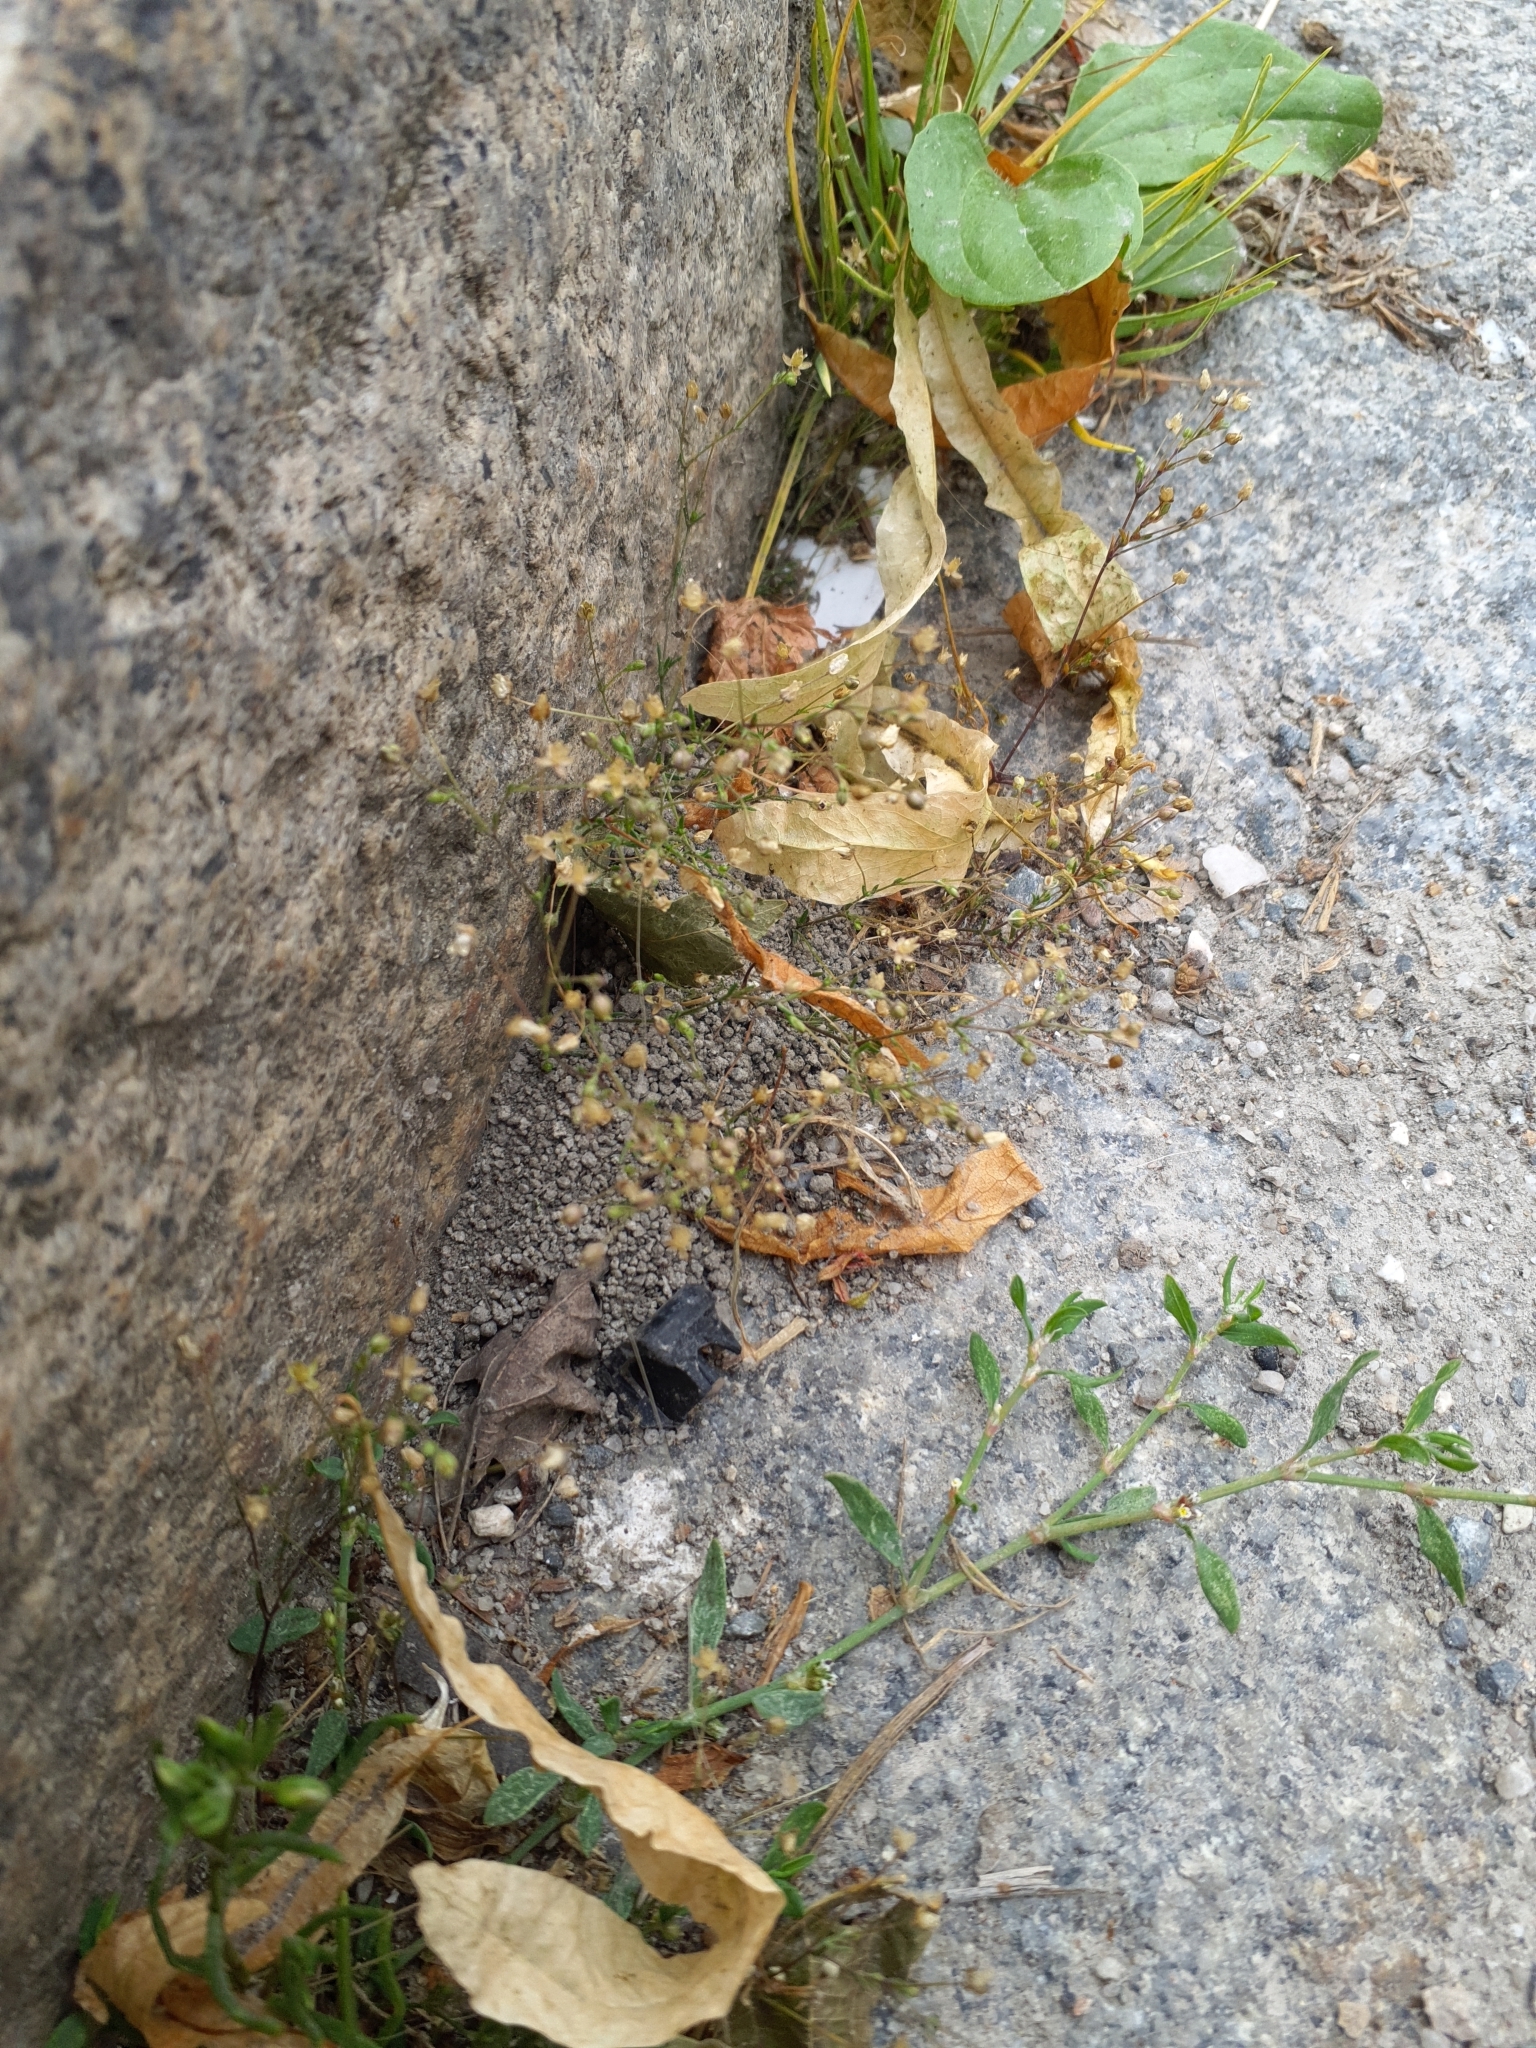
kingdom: Plantae
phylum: Tracheophyta
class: Magnoliopsida
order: Caryophyllales
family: Caryophyllaceae
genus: Sagina
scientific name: Sagina apetala
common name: Annual pearlwort
